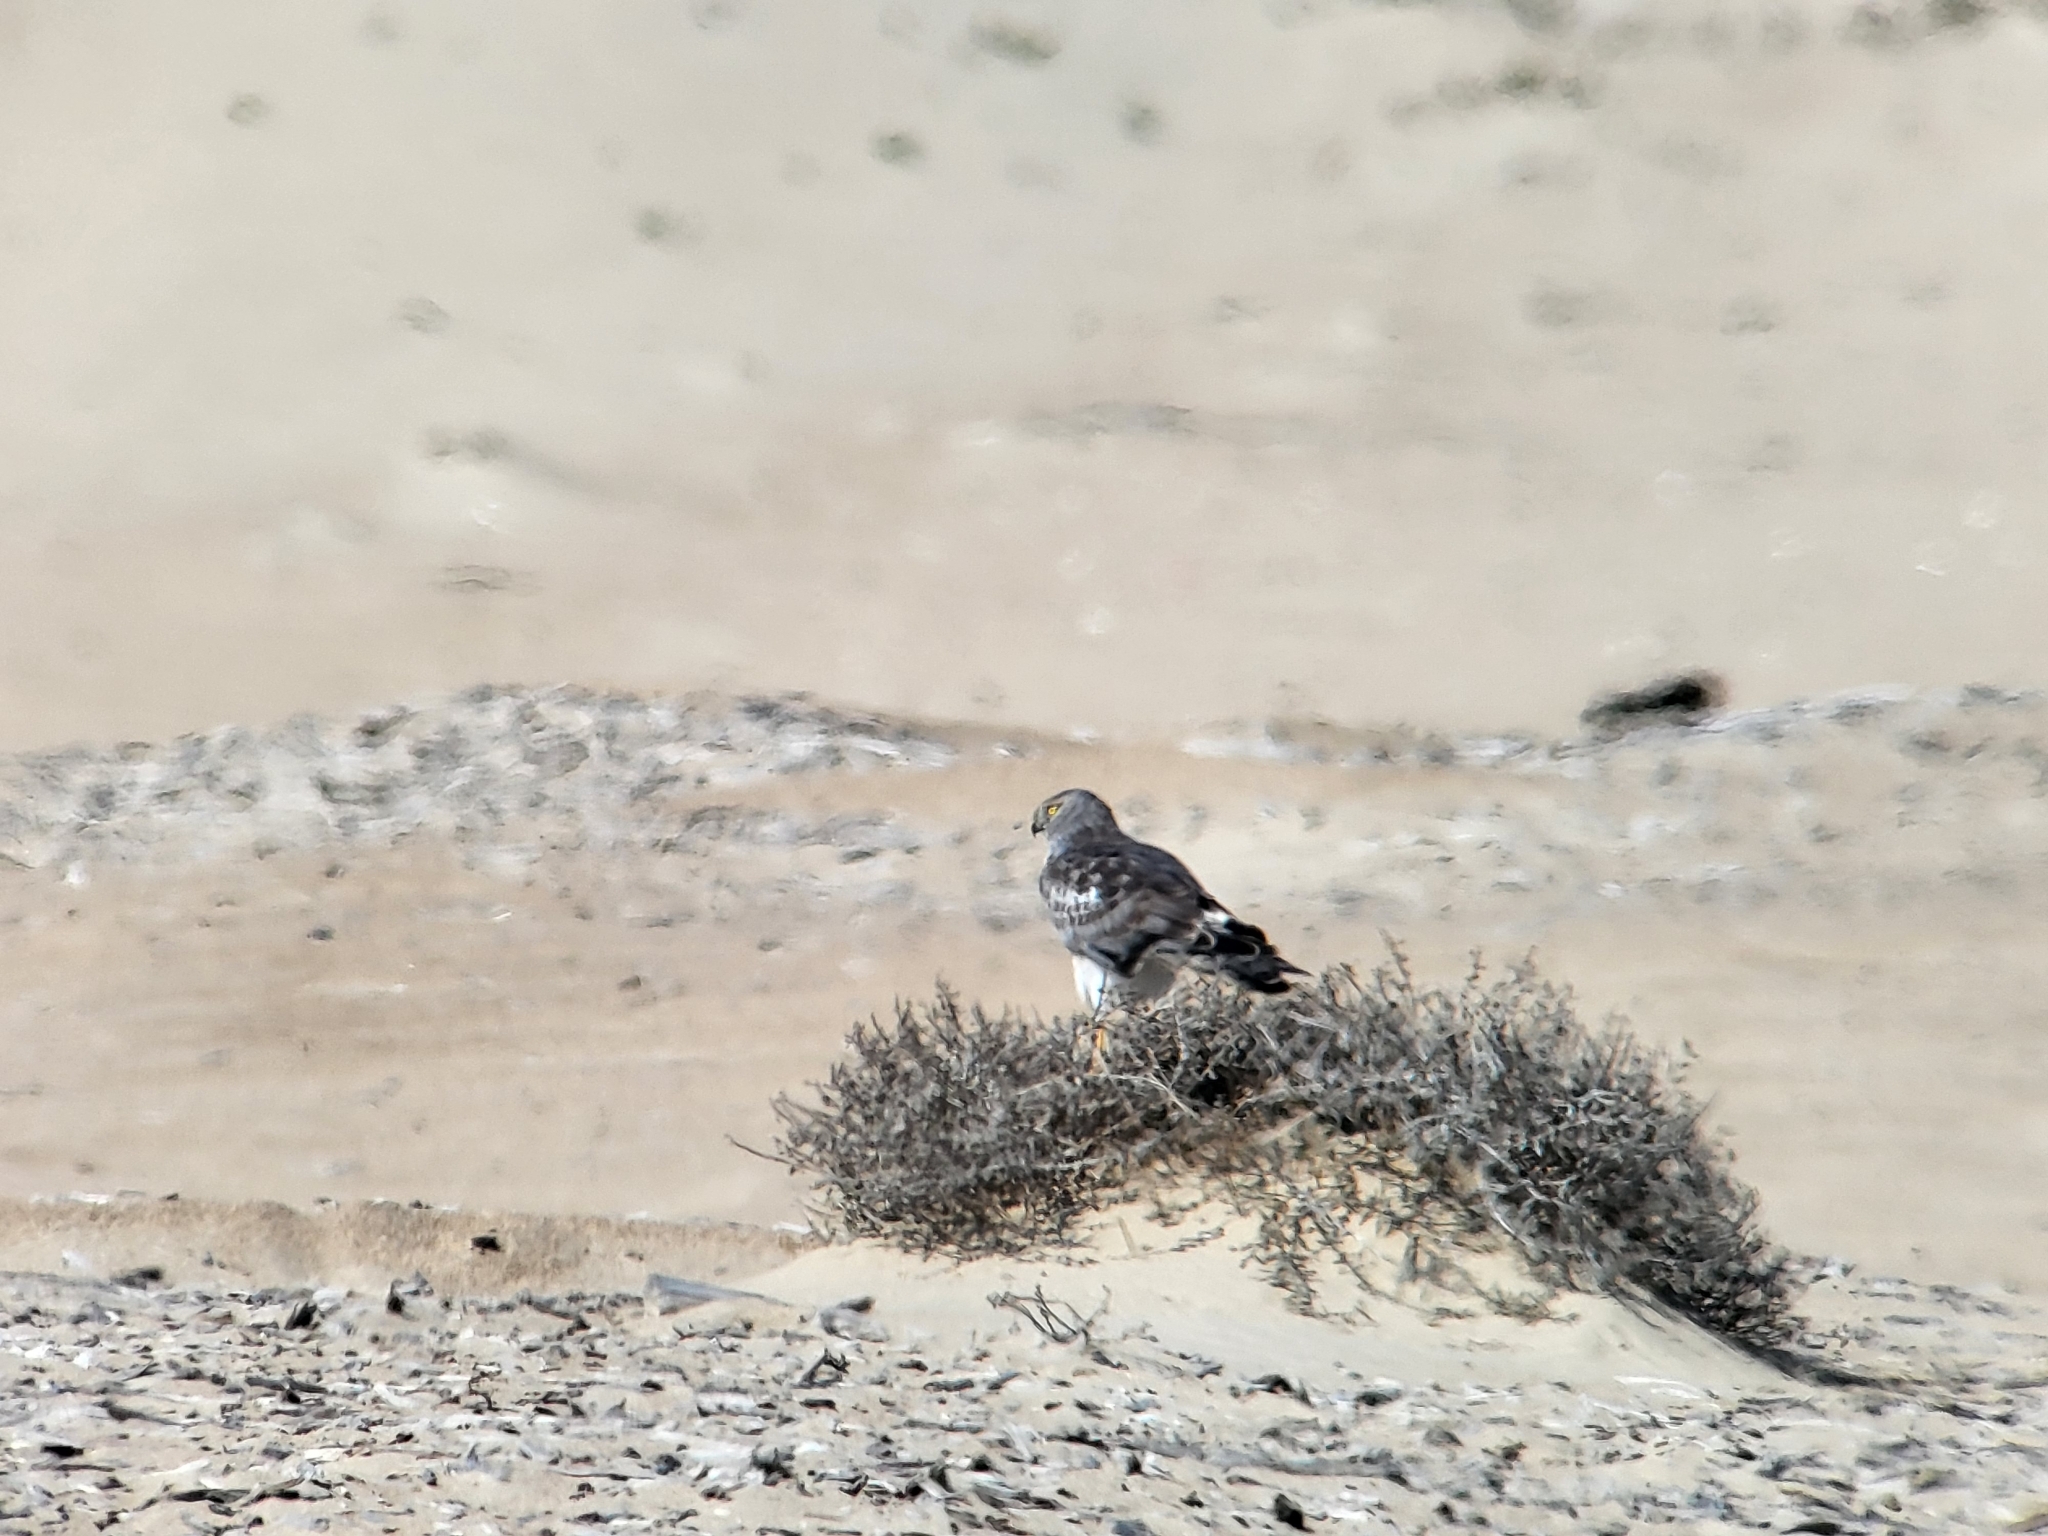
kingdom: Animalia
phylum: Chordata
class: Aves
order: Accipitriformes
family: Accipitridae
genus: Circus
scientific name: Circus cyaneus
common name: Hen harrier
